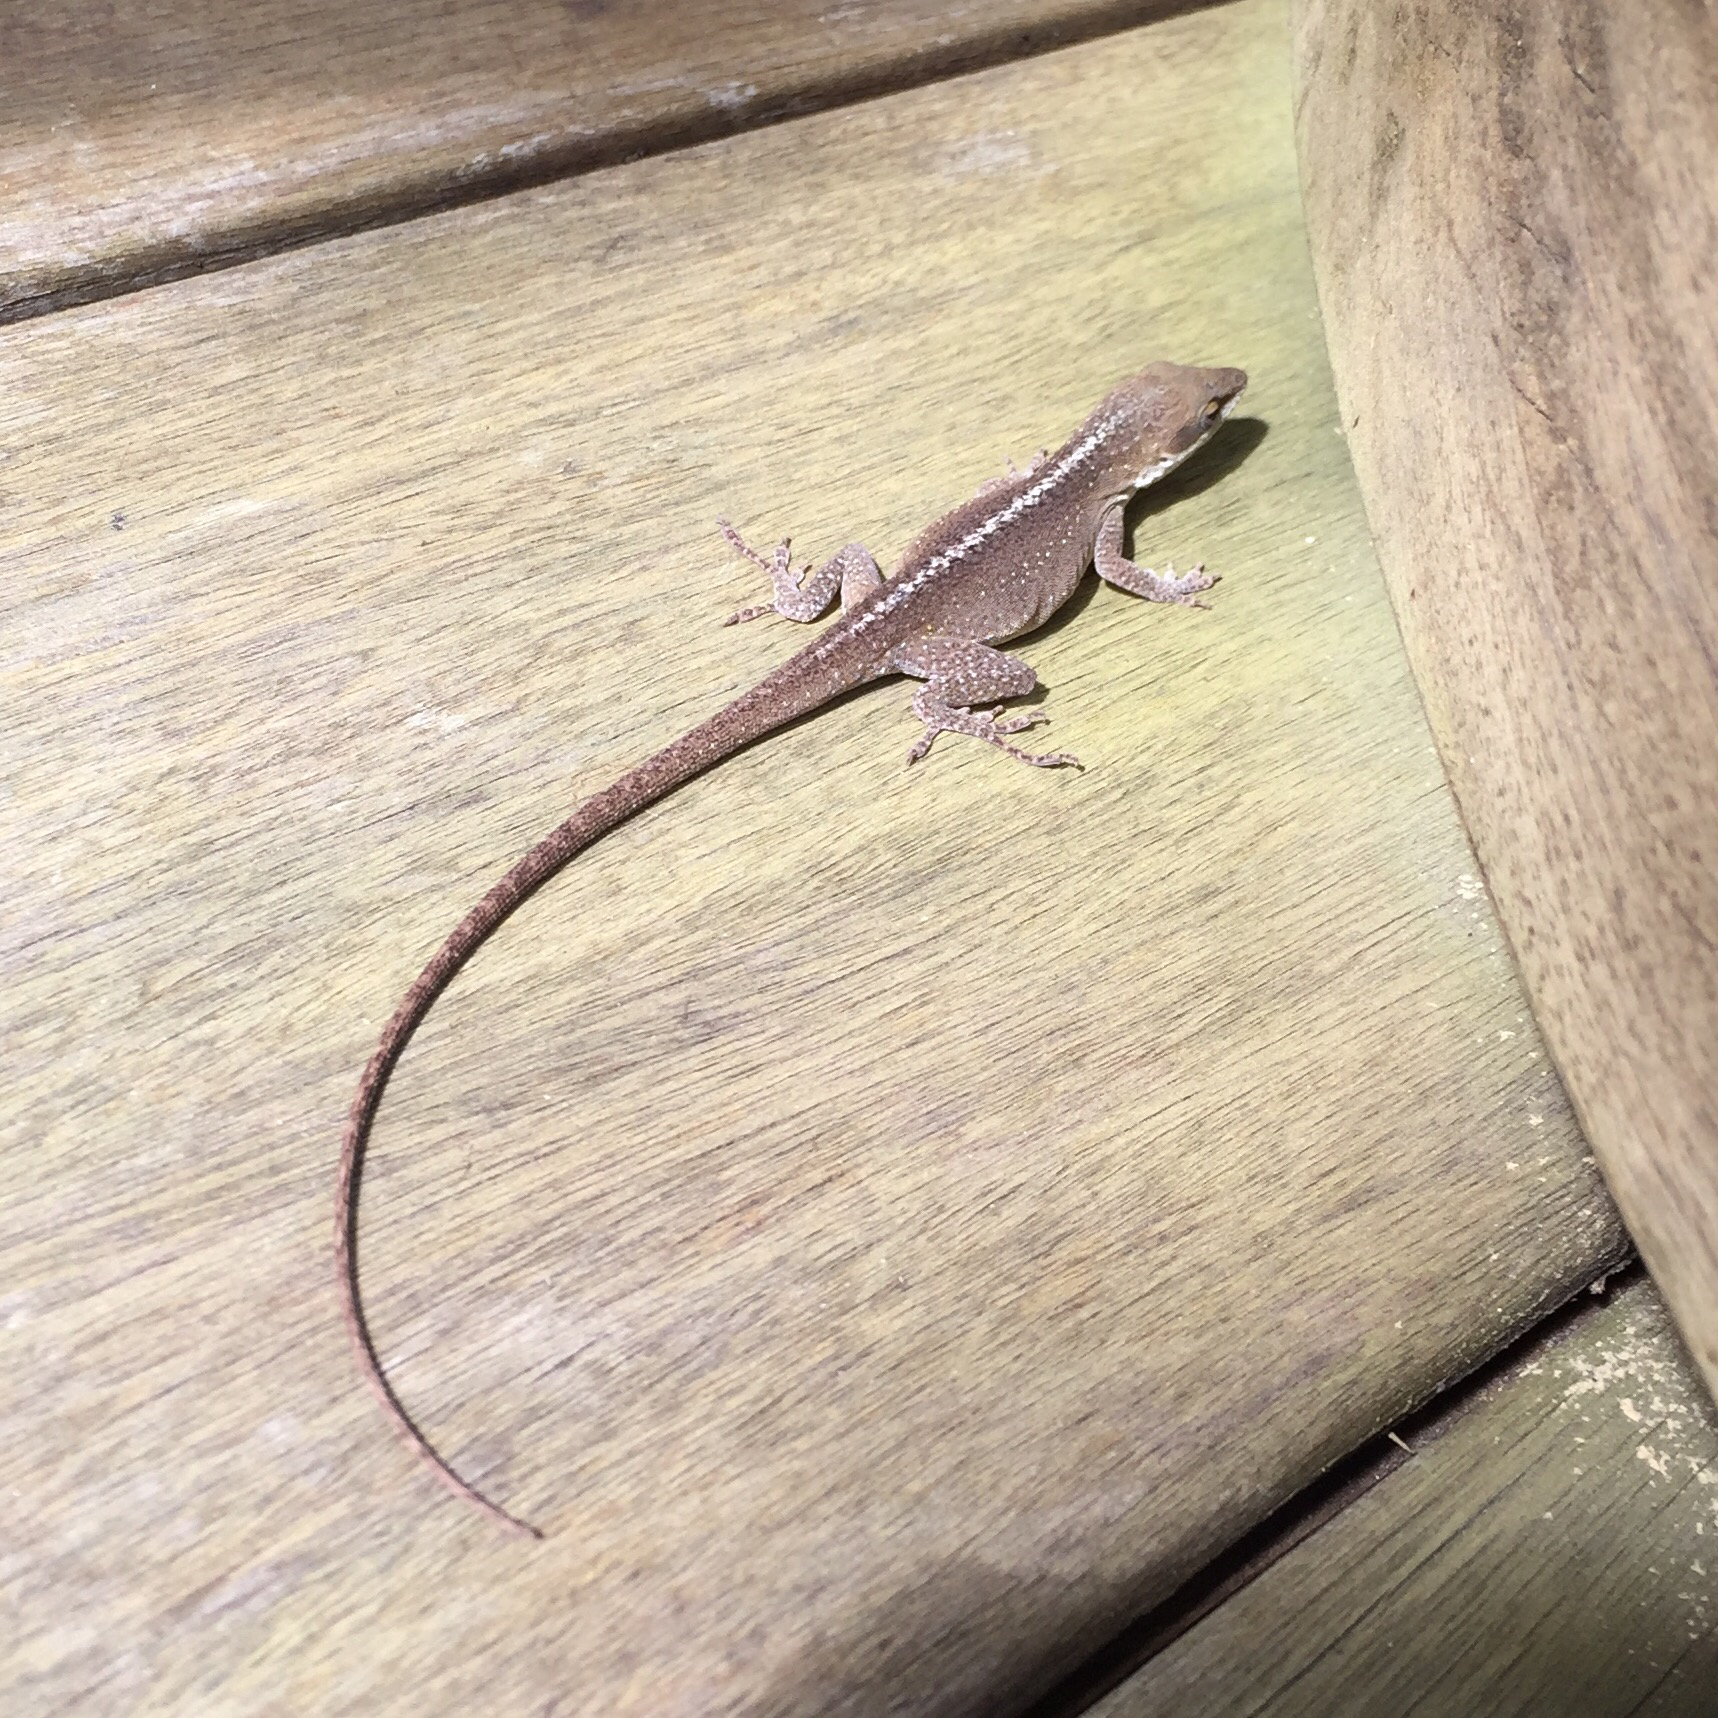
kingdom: Animalia
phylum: Chordata
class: Squamata
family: Dactyloidae
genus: Anolis
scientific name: Anolis carolinensis
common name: Green anole
